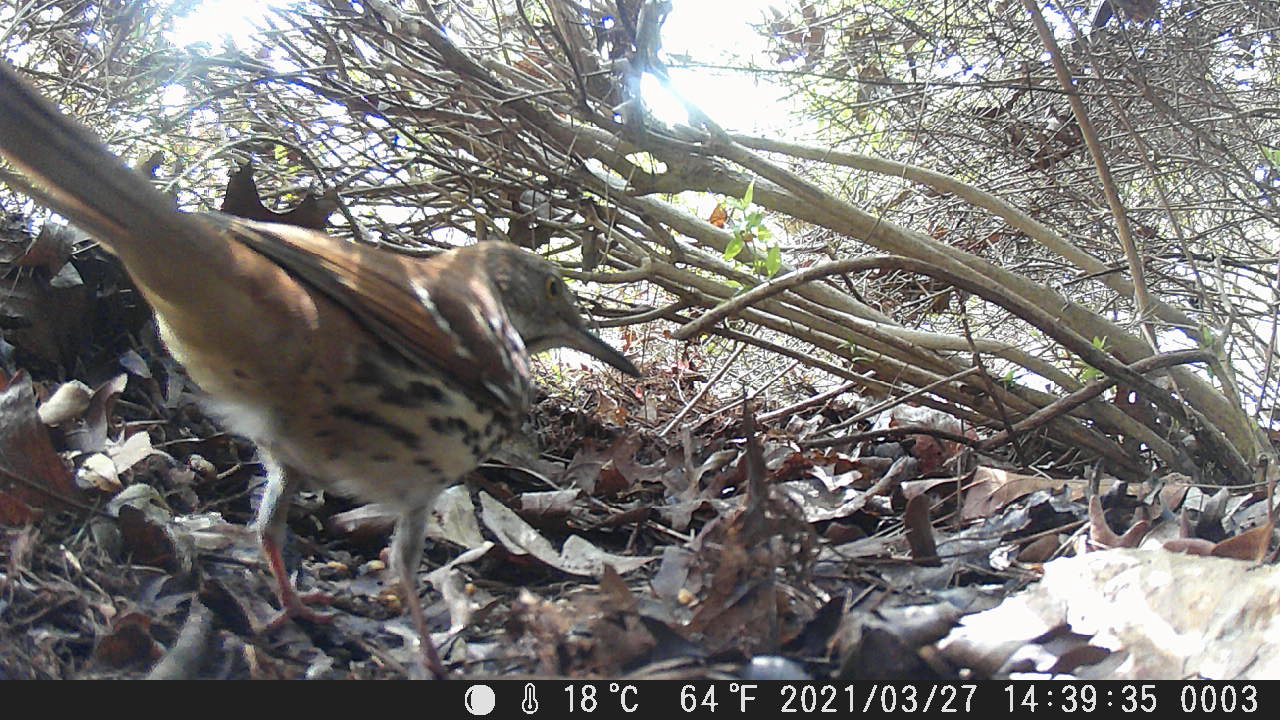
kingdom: Animalia
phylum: Chordata
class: Aves
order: Passeriformes
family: Mimidae
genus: Toxostoma
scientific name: Toxostoma rufum
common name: Brown thrasher
